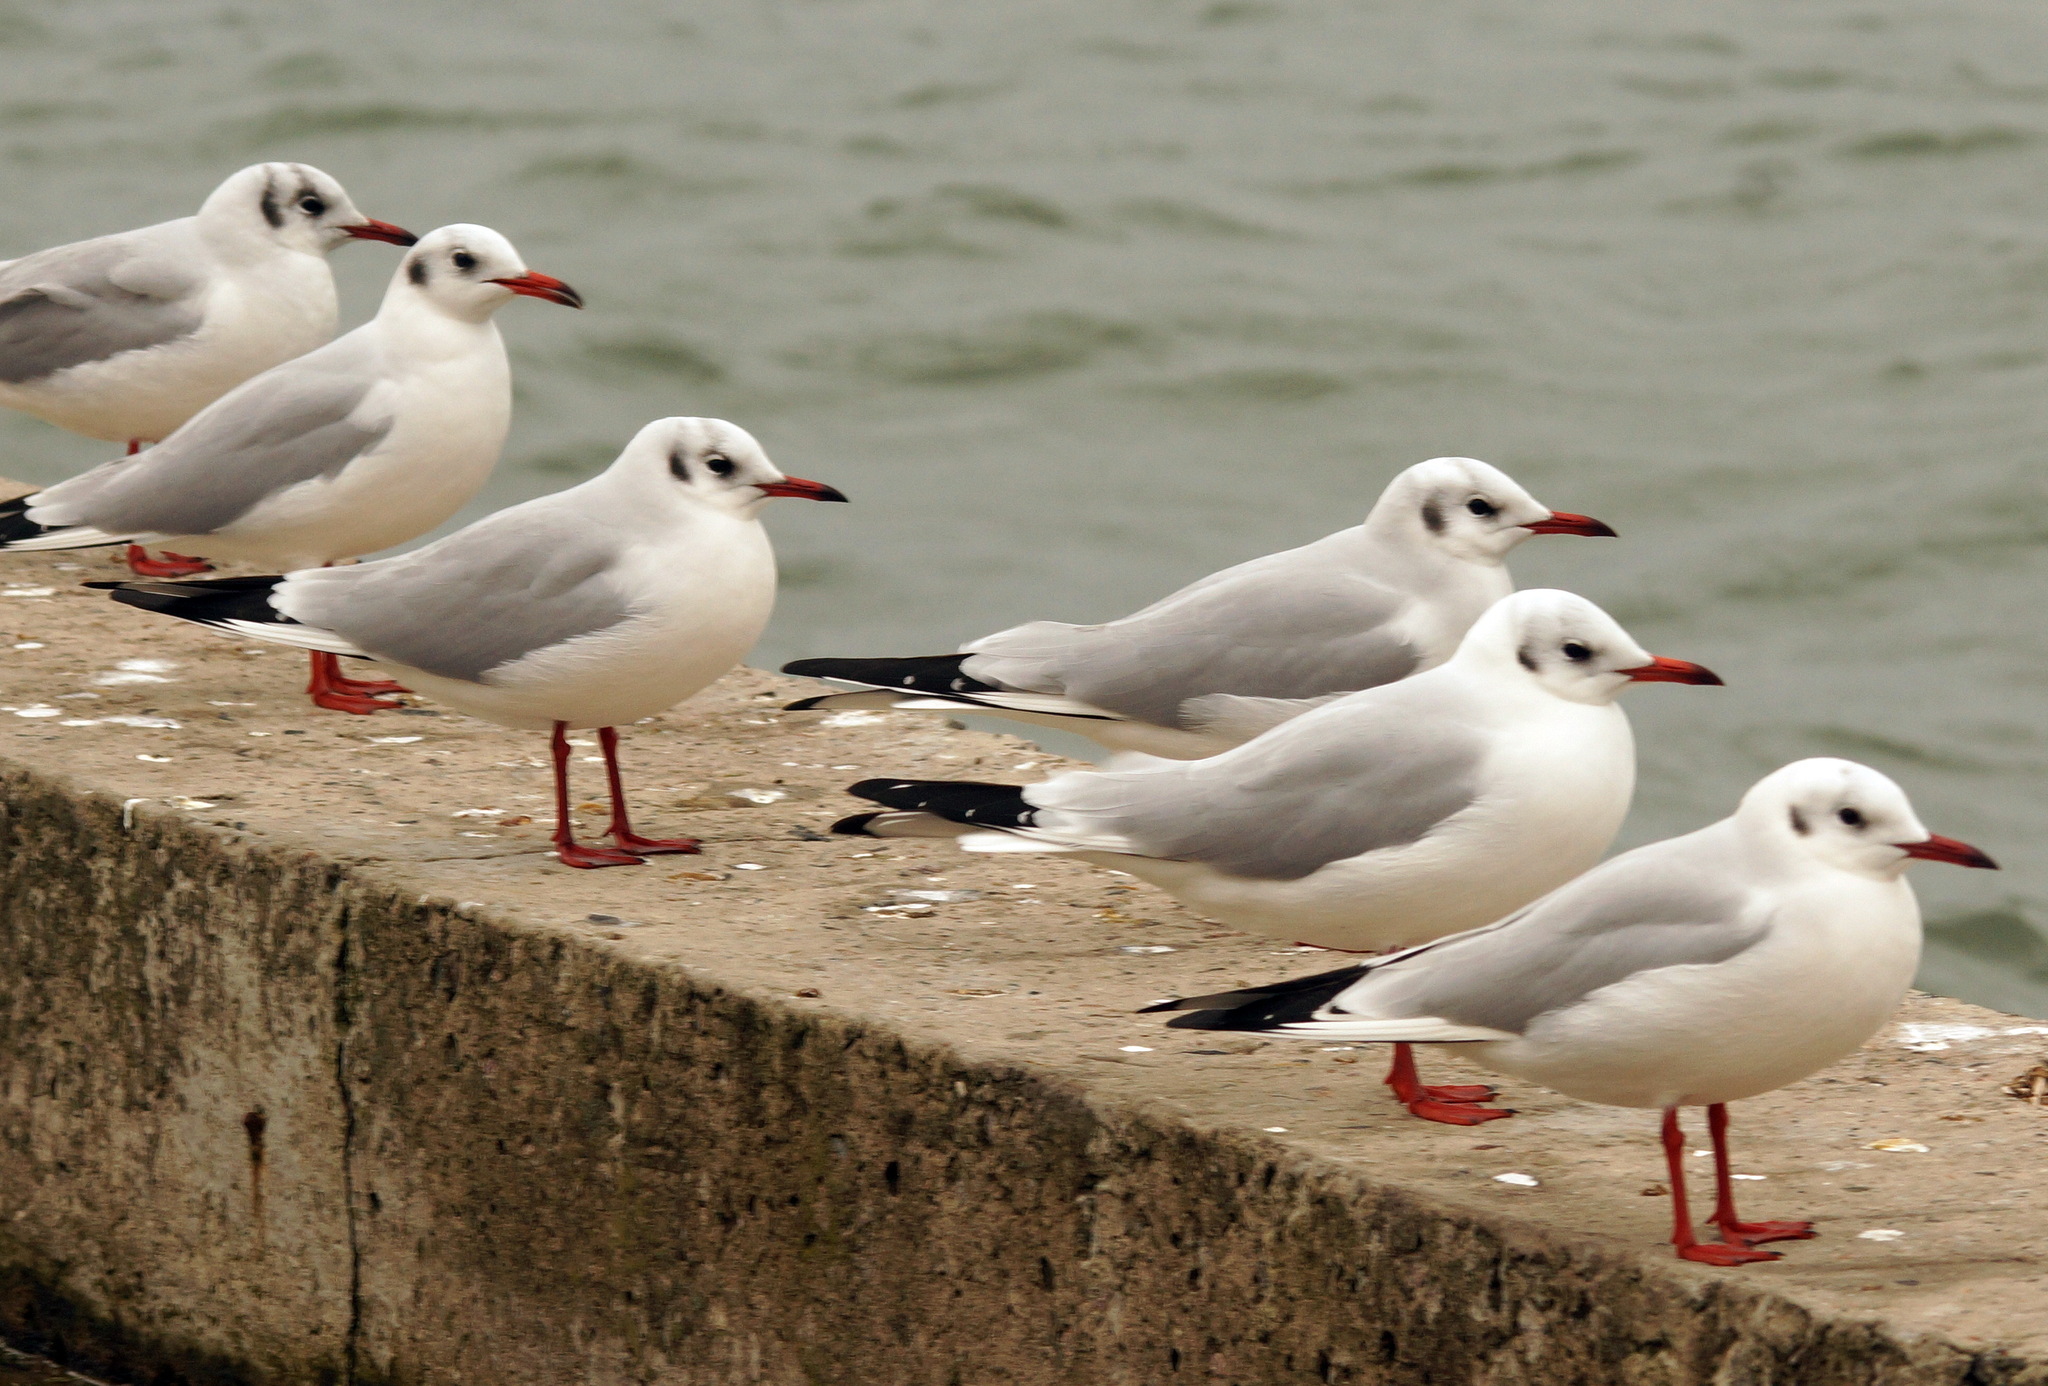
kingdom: Animalia
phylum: Chordata
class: Aves
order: Charadriiformes
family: Laridae
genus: Chroicocephalus
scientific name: Chroicocephalus ridibundus
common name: Black-headed gull
